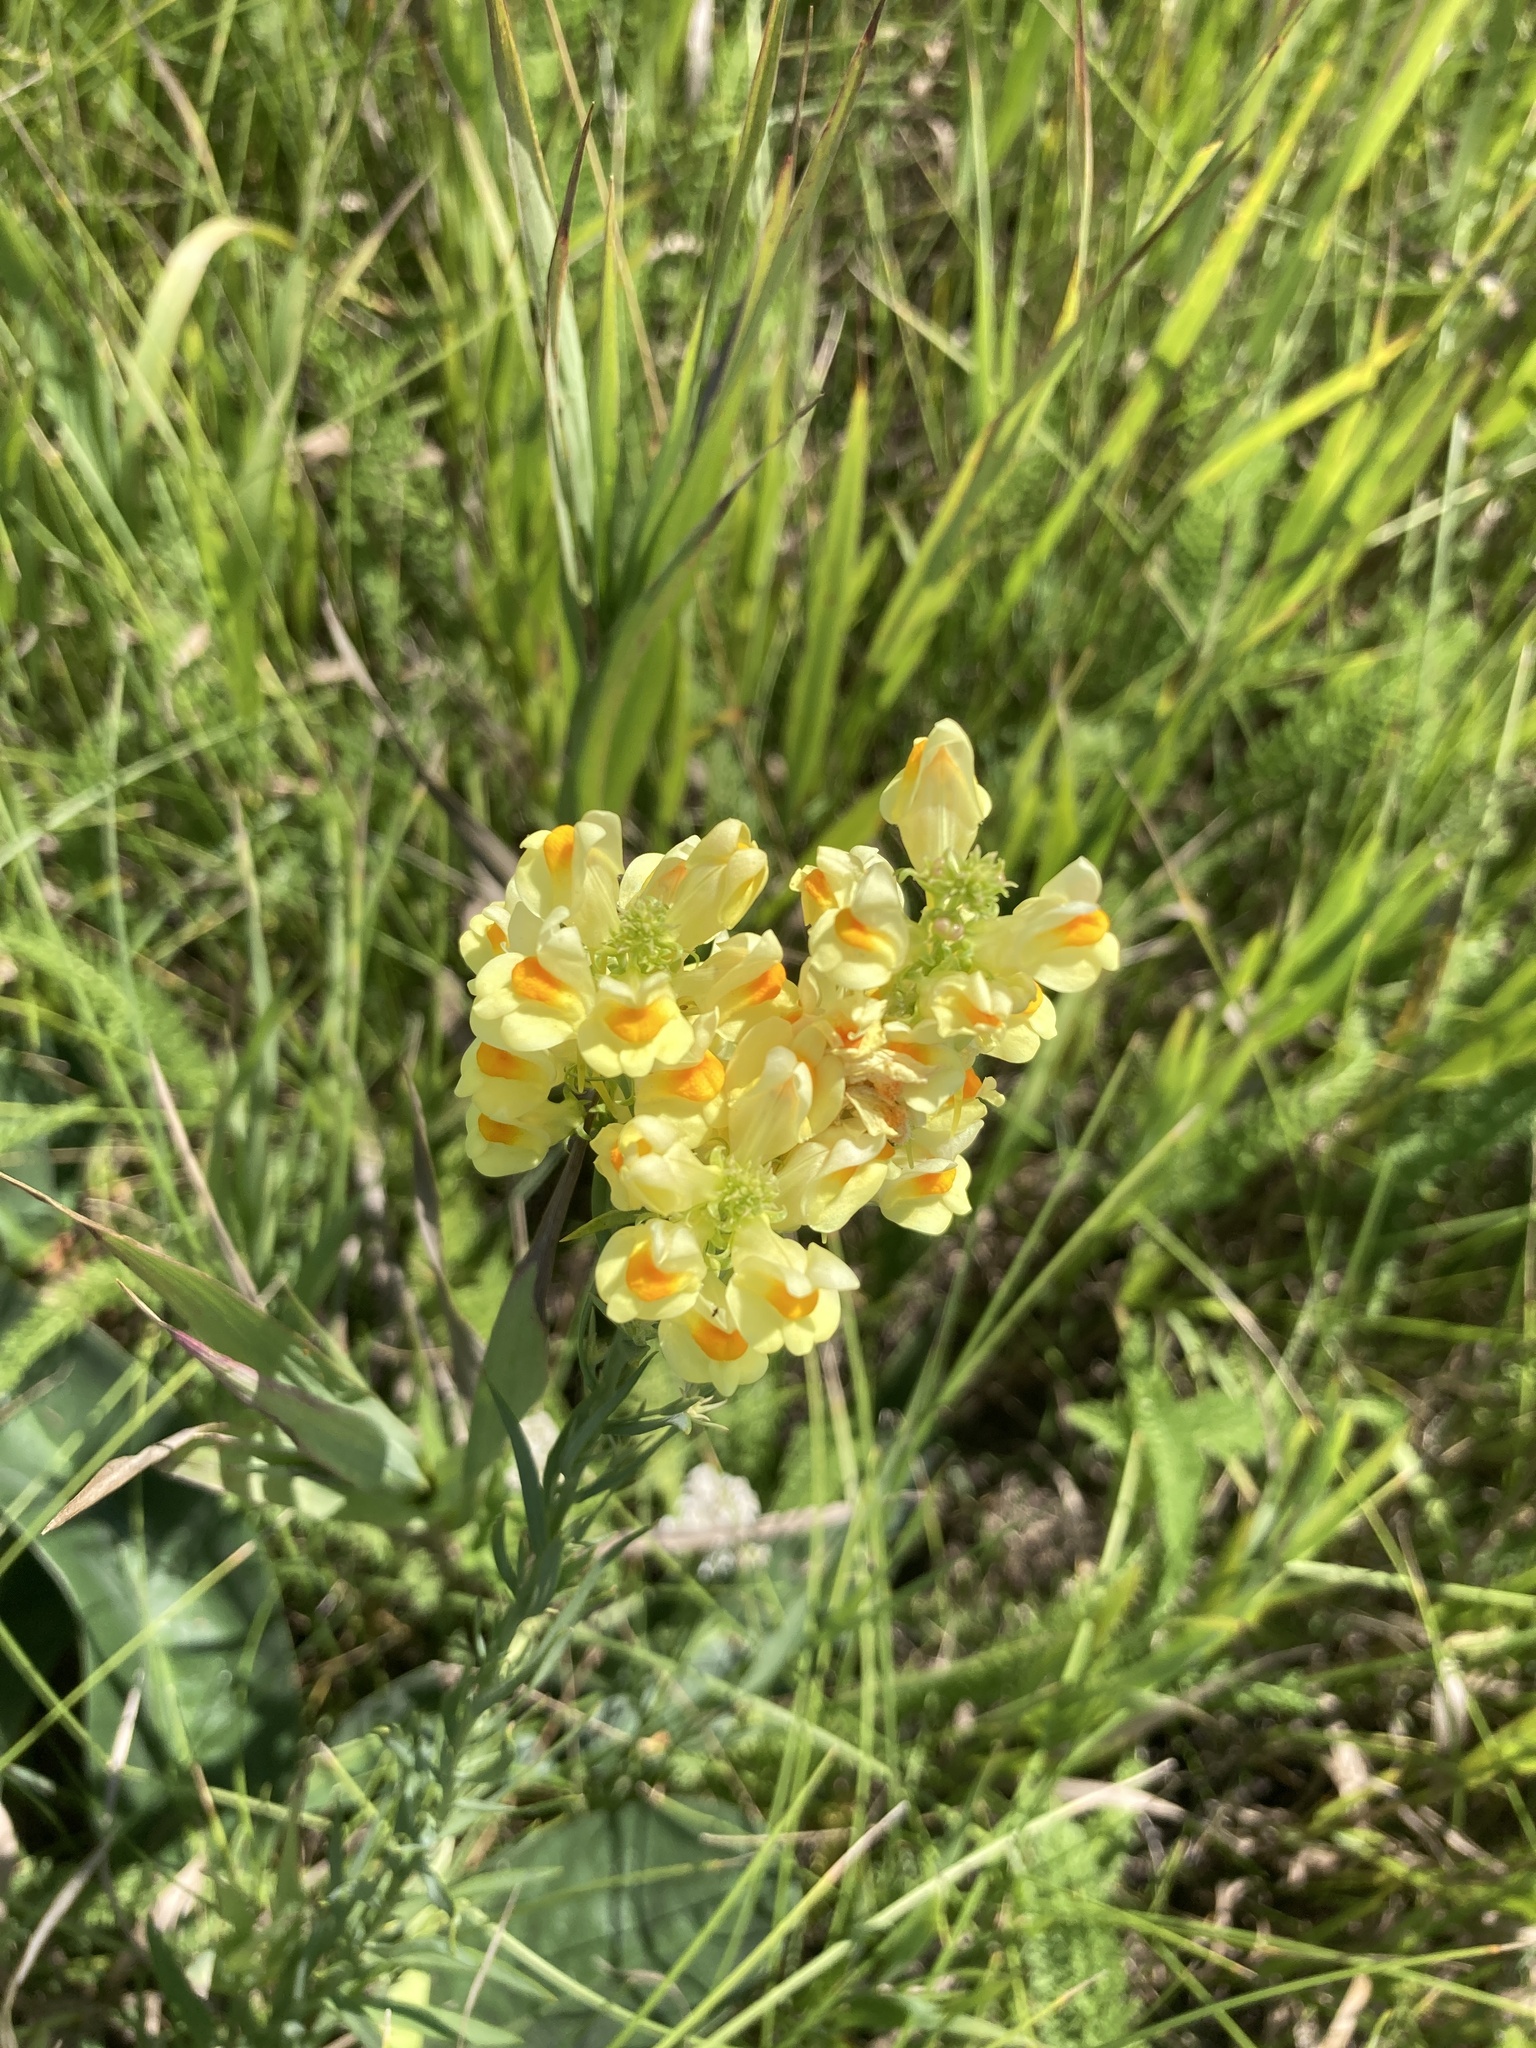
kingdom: Plantae
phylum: Tracheophyta
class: Magnoliopsida
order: Lamiales
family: Plantaginaceae
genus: Linaria
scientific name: Linaria vulgaris
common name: Butter and eggs
